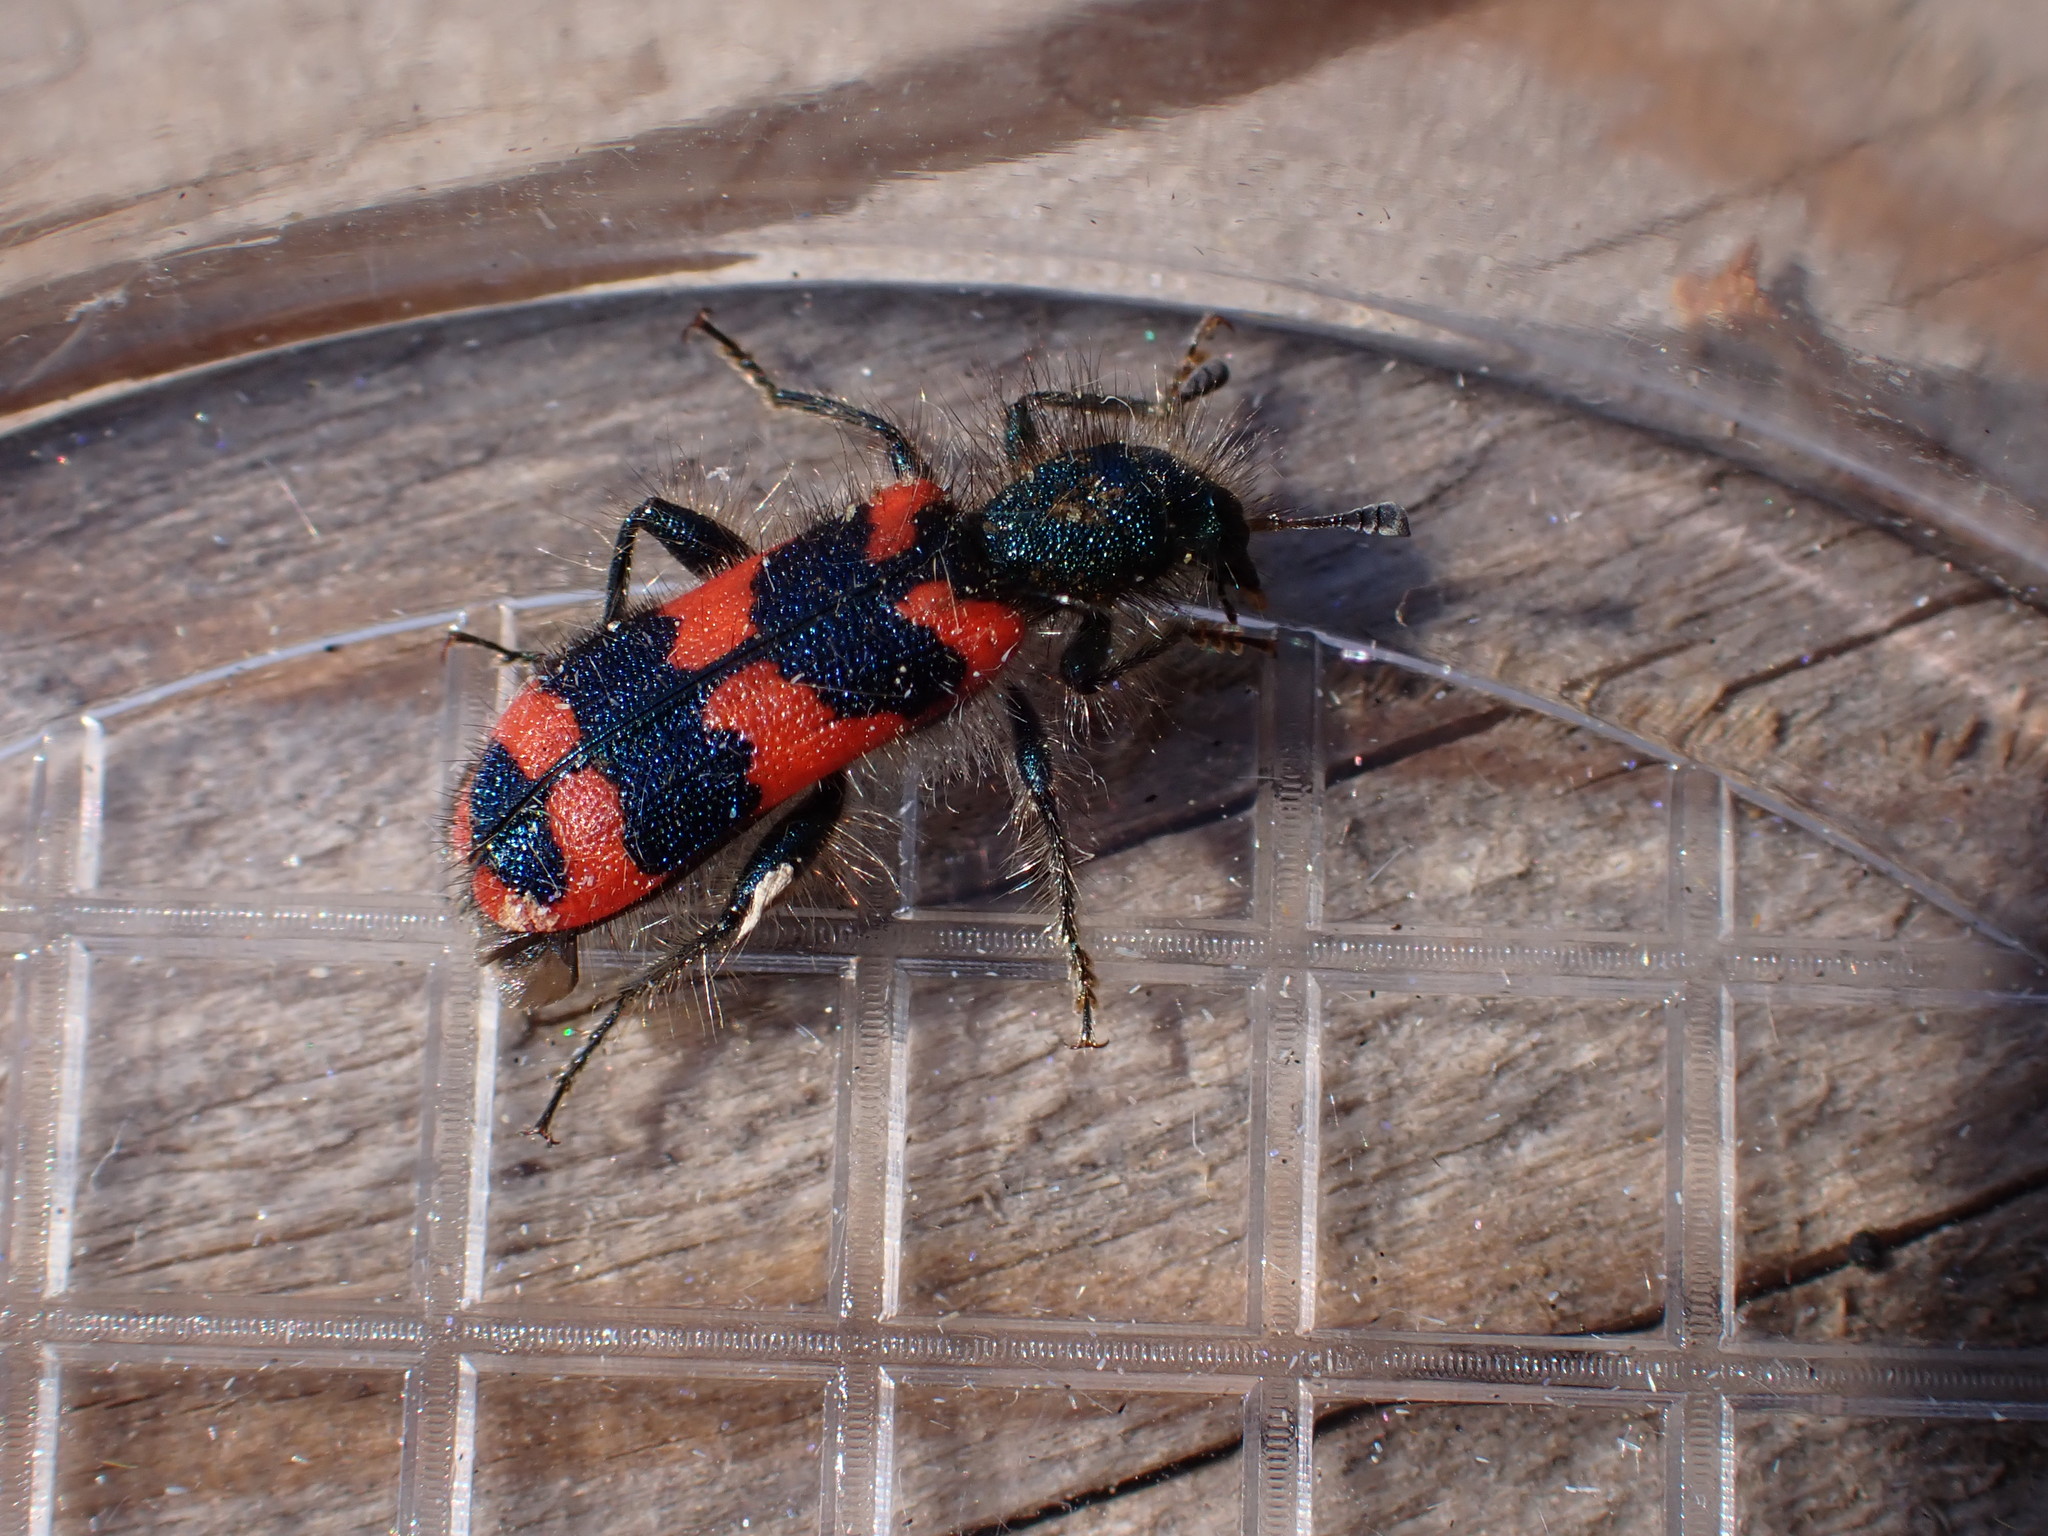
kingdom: Animalia
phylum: Arthropoda
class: Insecta
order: Coleoptera
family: Cleridae
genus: Trichodes
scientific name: Trichodes alvearius
